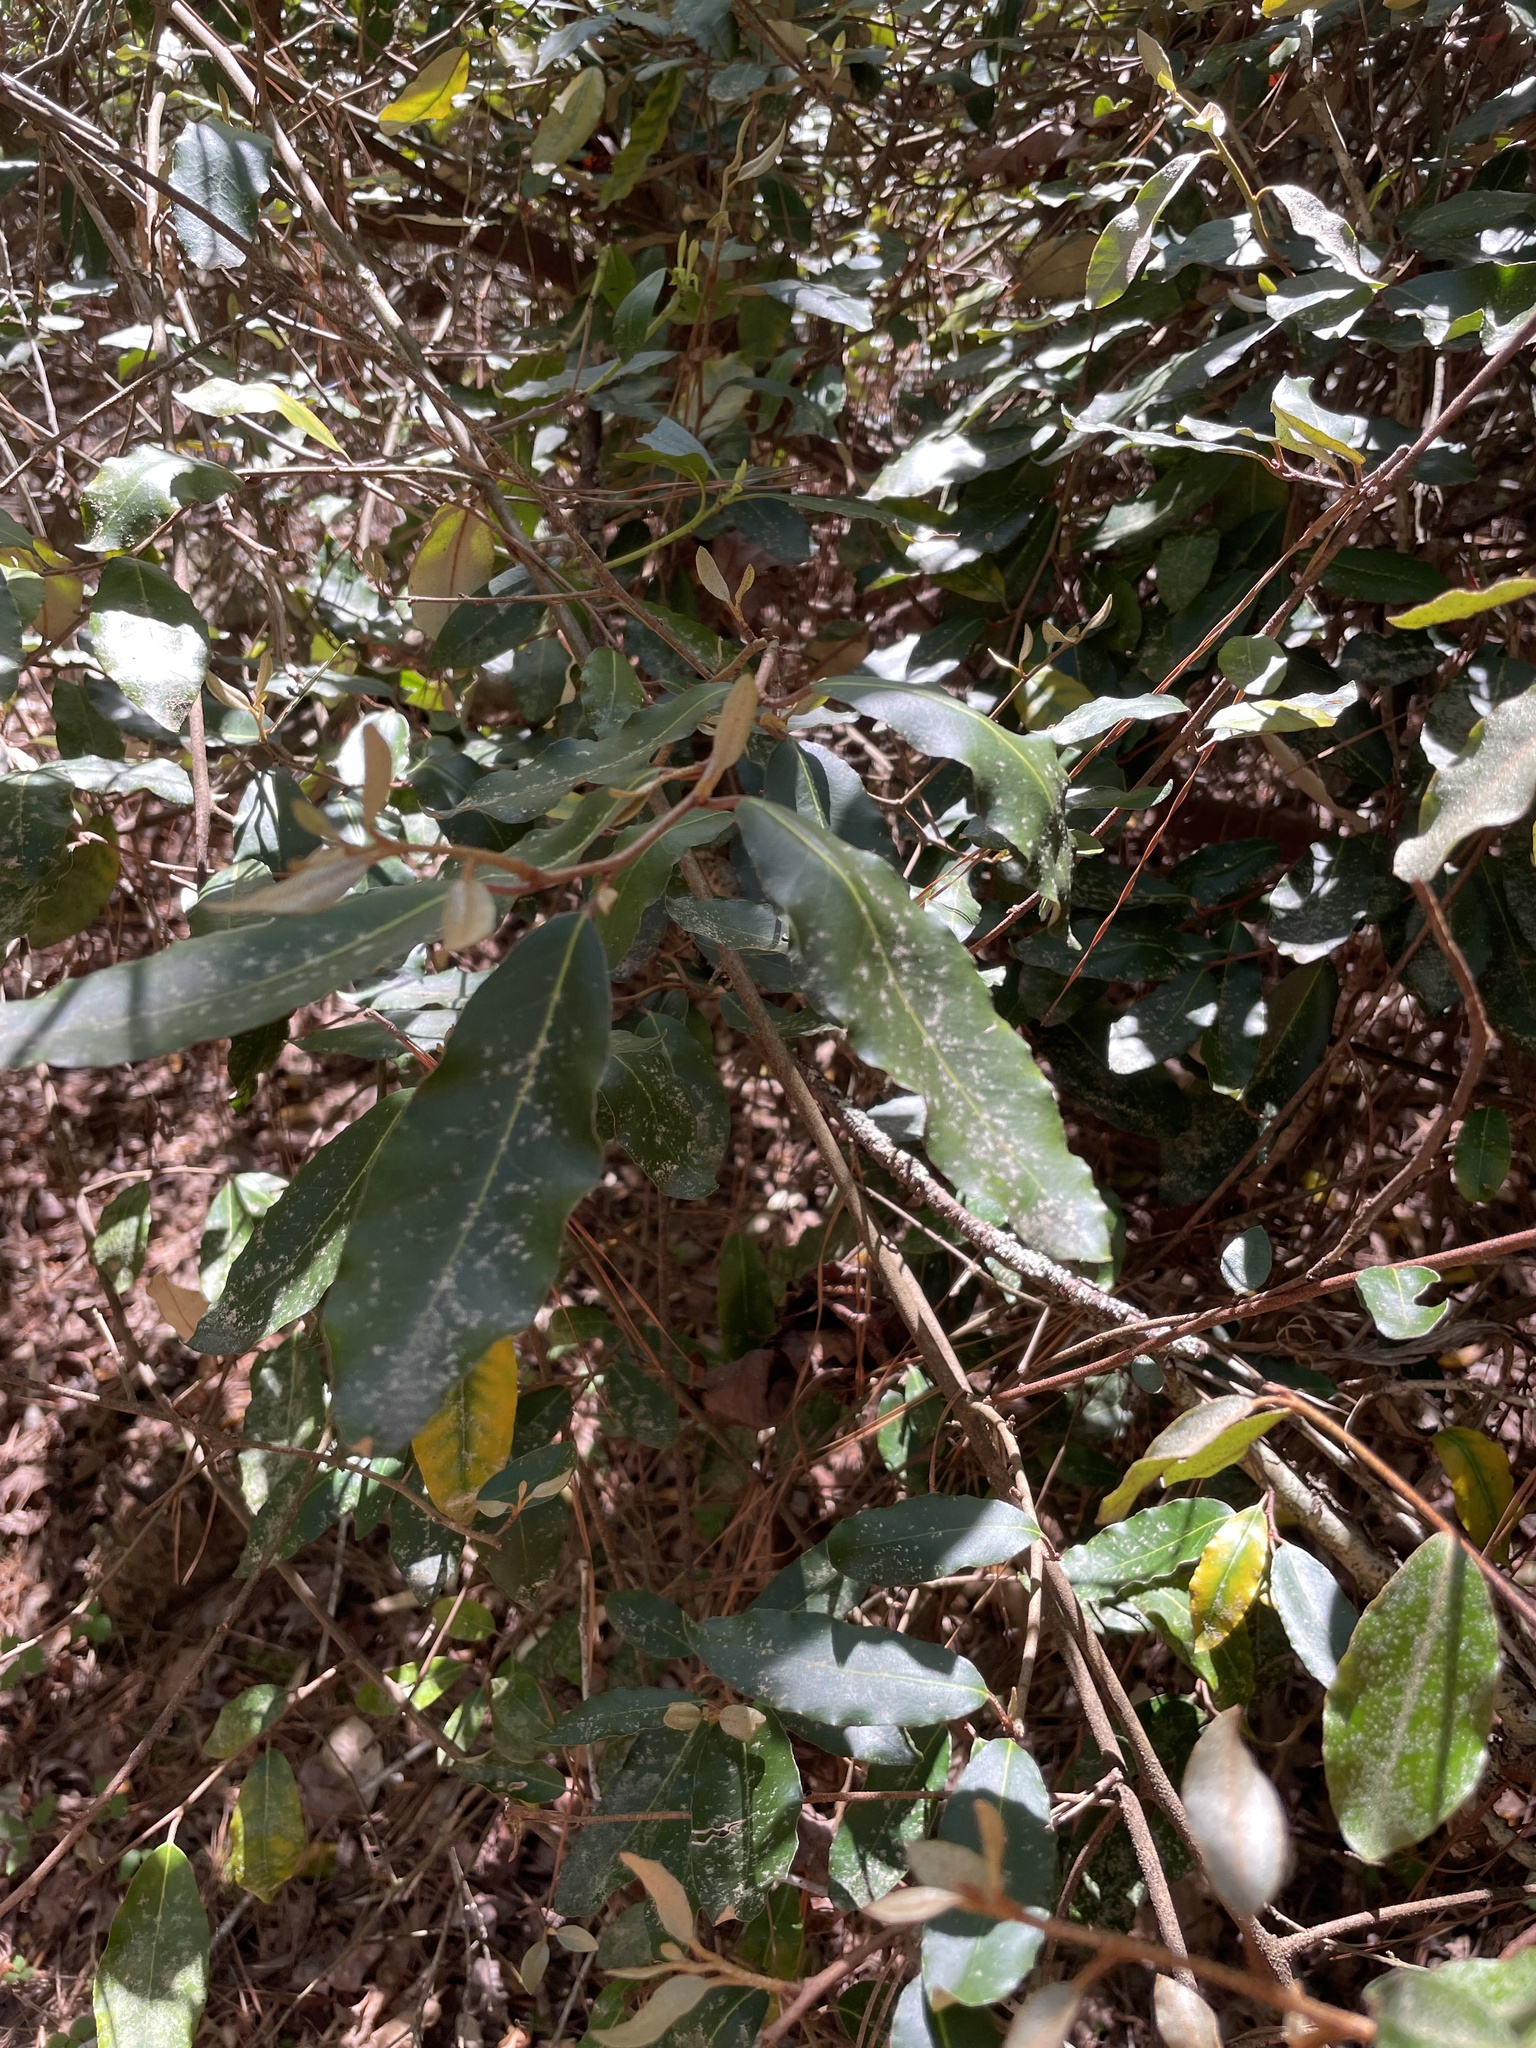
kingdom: Plantae
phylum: Tracheophyta
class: Magnoliopsida
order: Rosales
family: Elaeagnaceae
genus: Elaeagnus
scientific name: Elaeagnus pungens
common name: Spiny oleaster
